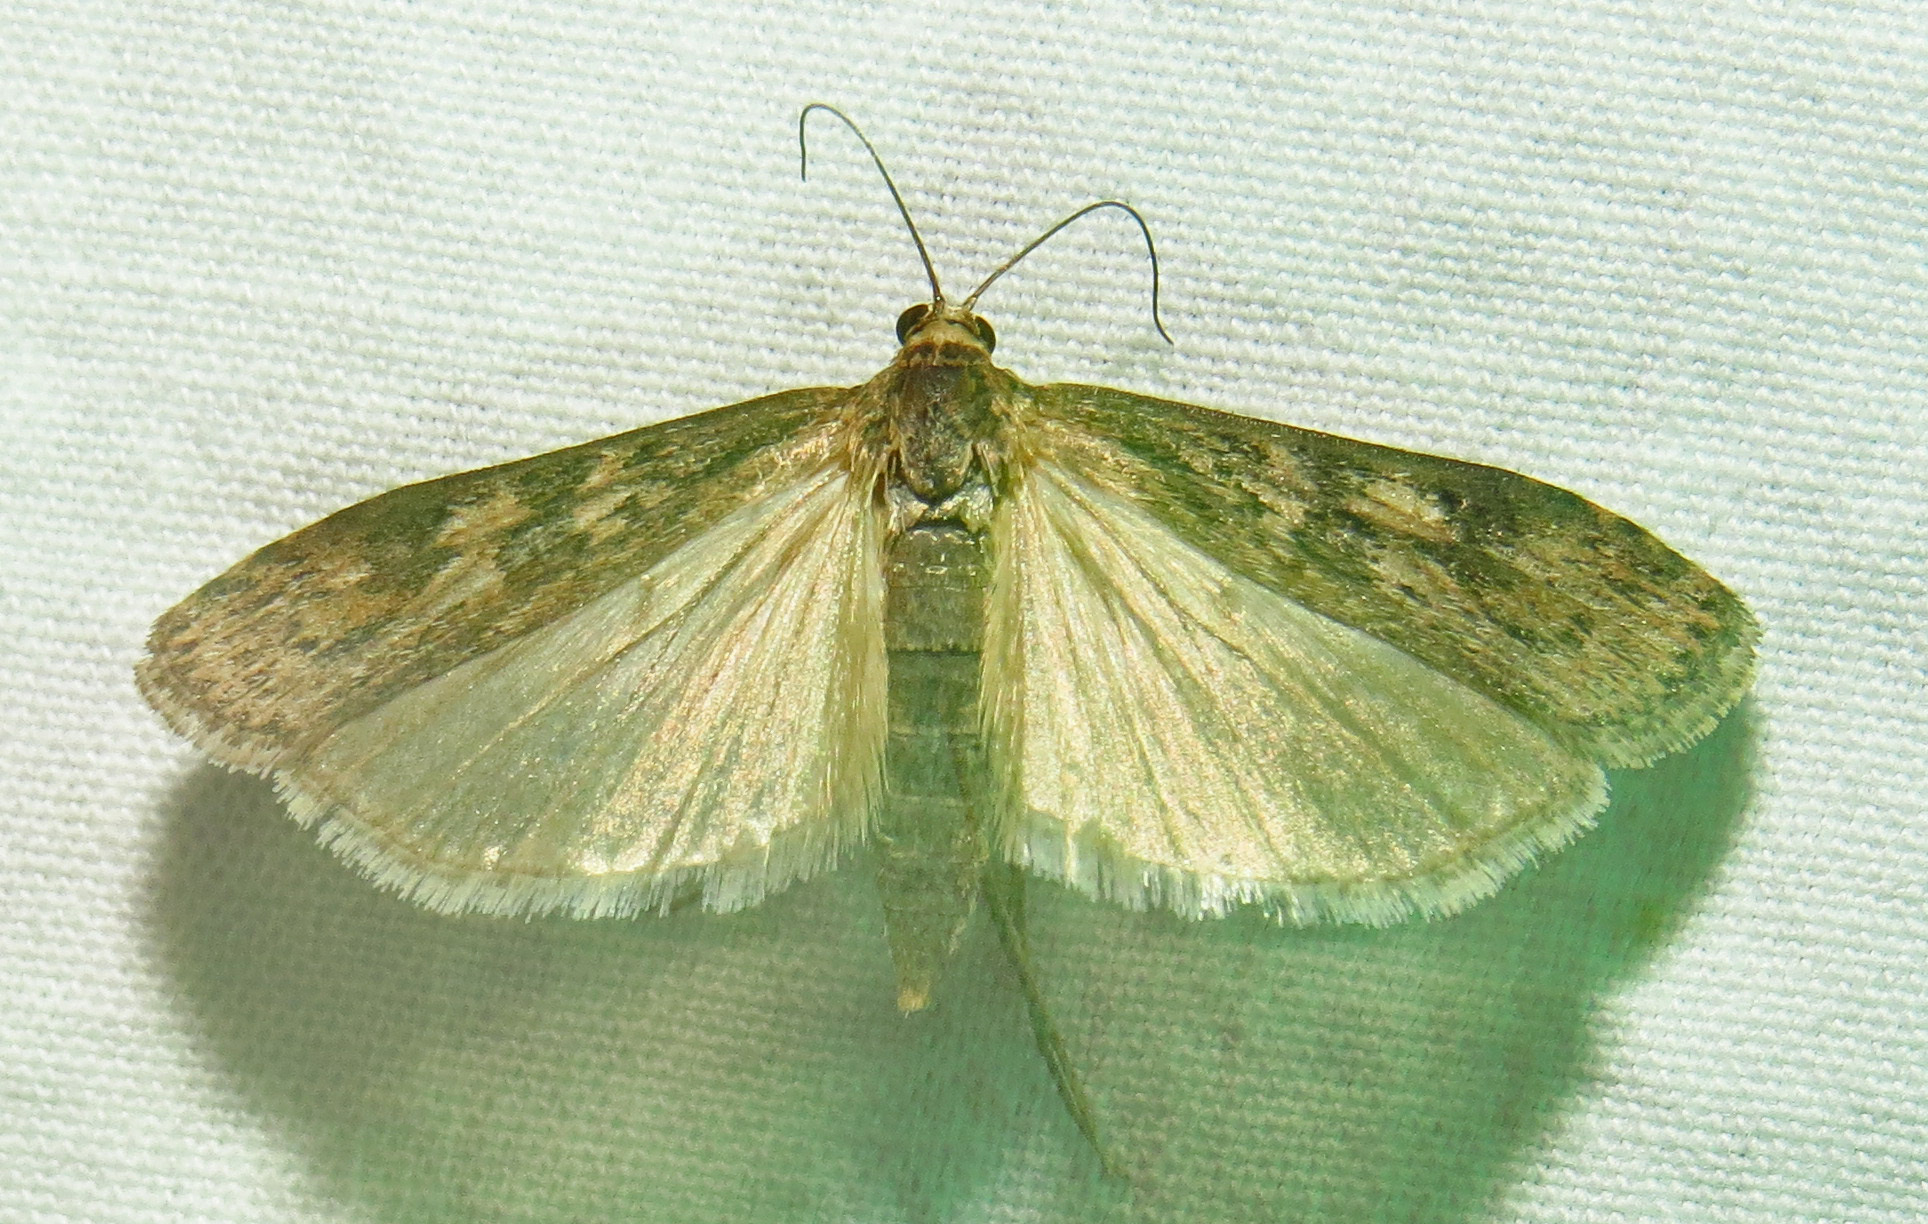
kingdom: Animalia
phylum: Arthropoda
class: Insecta
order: Lepidoptera
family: Crambidae
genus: Nomophila
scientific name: Nomophila nearctica
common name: American rush veneer
